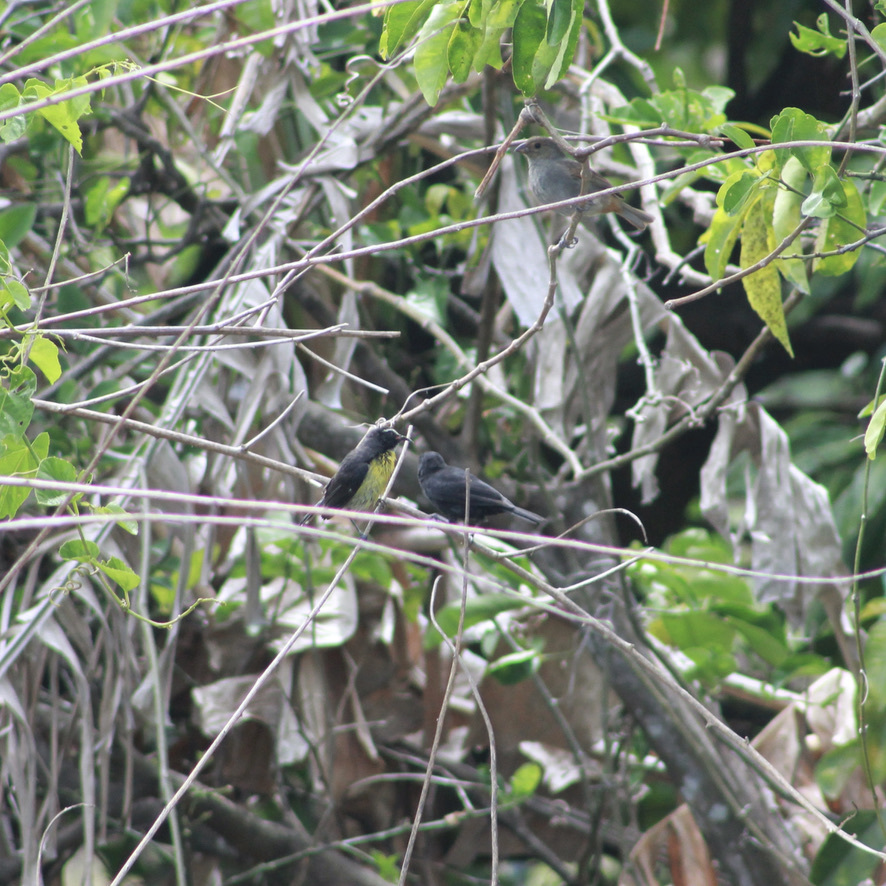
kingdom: Animalia
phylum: Chordata
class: Aves
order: Passeriformes
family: Thraupidae
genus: Coereba
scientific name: Coereba flaveola
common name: Bananaquit
